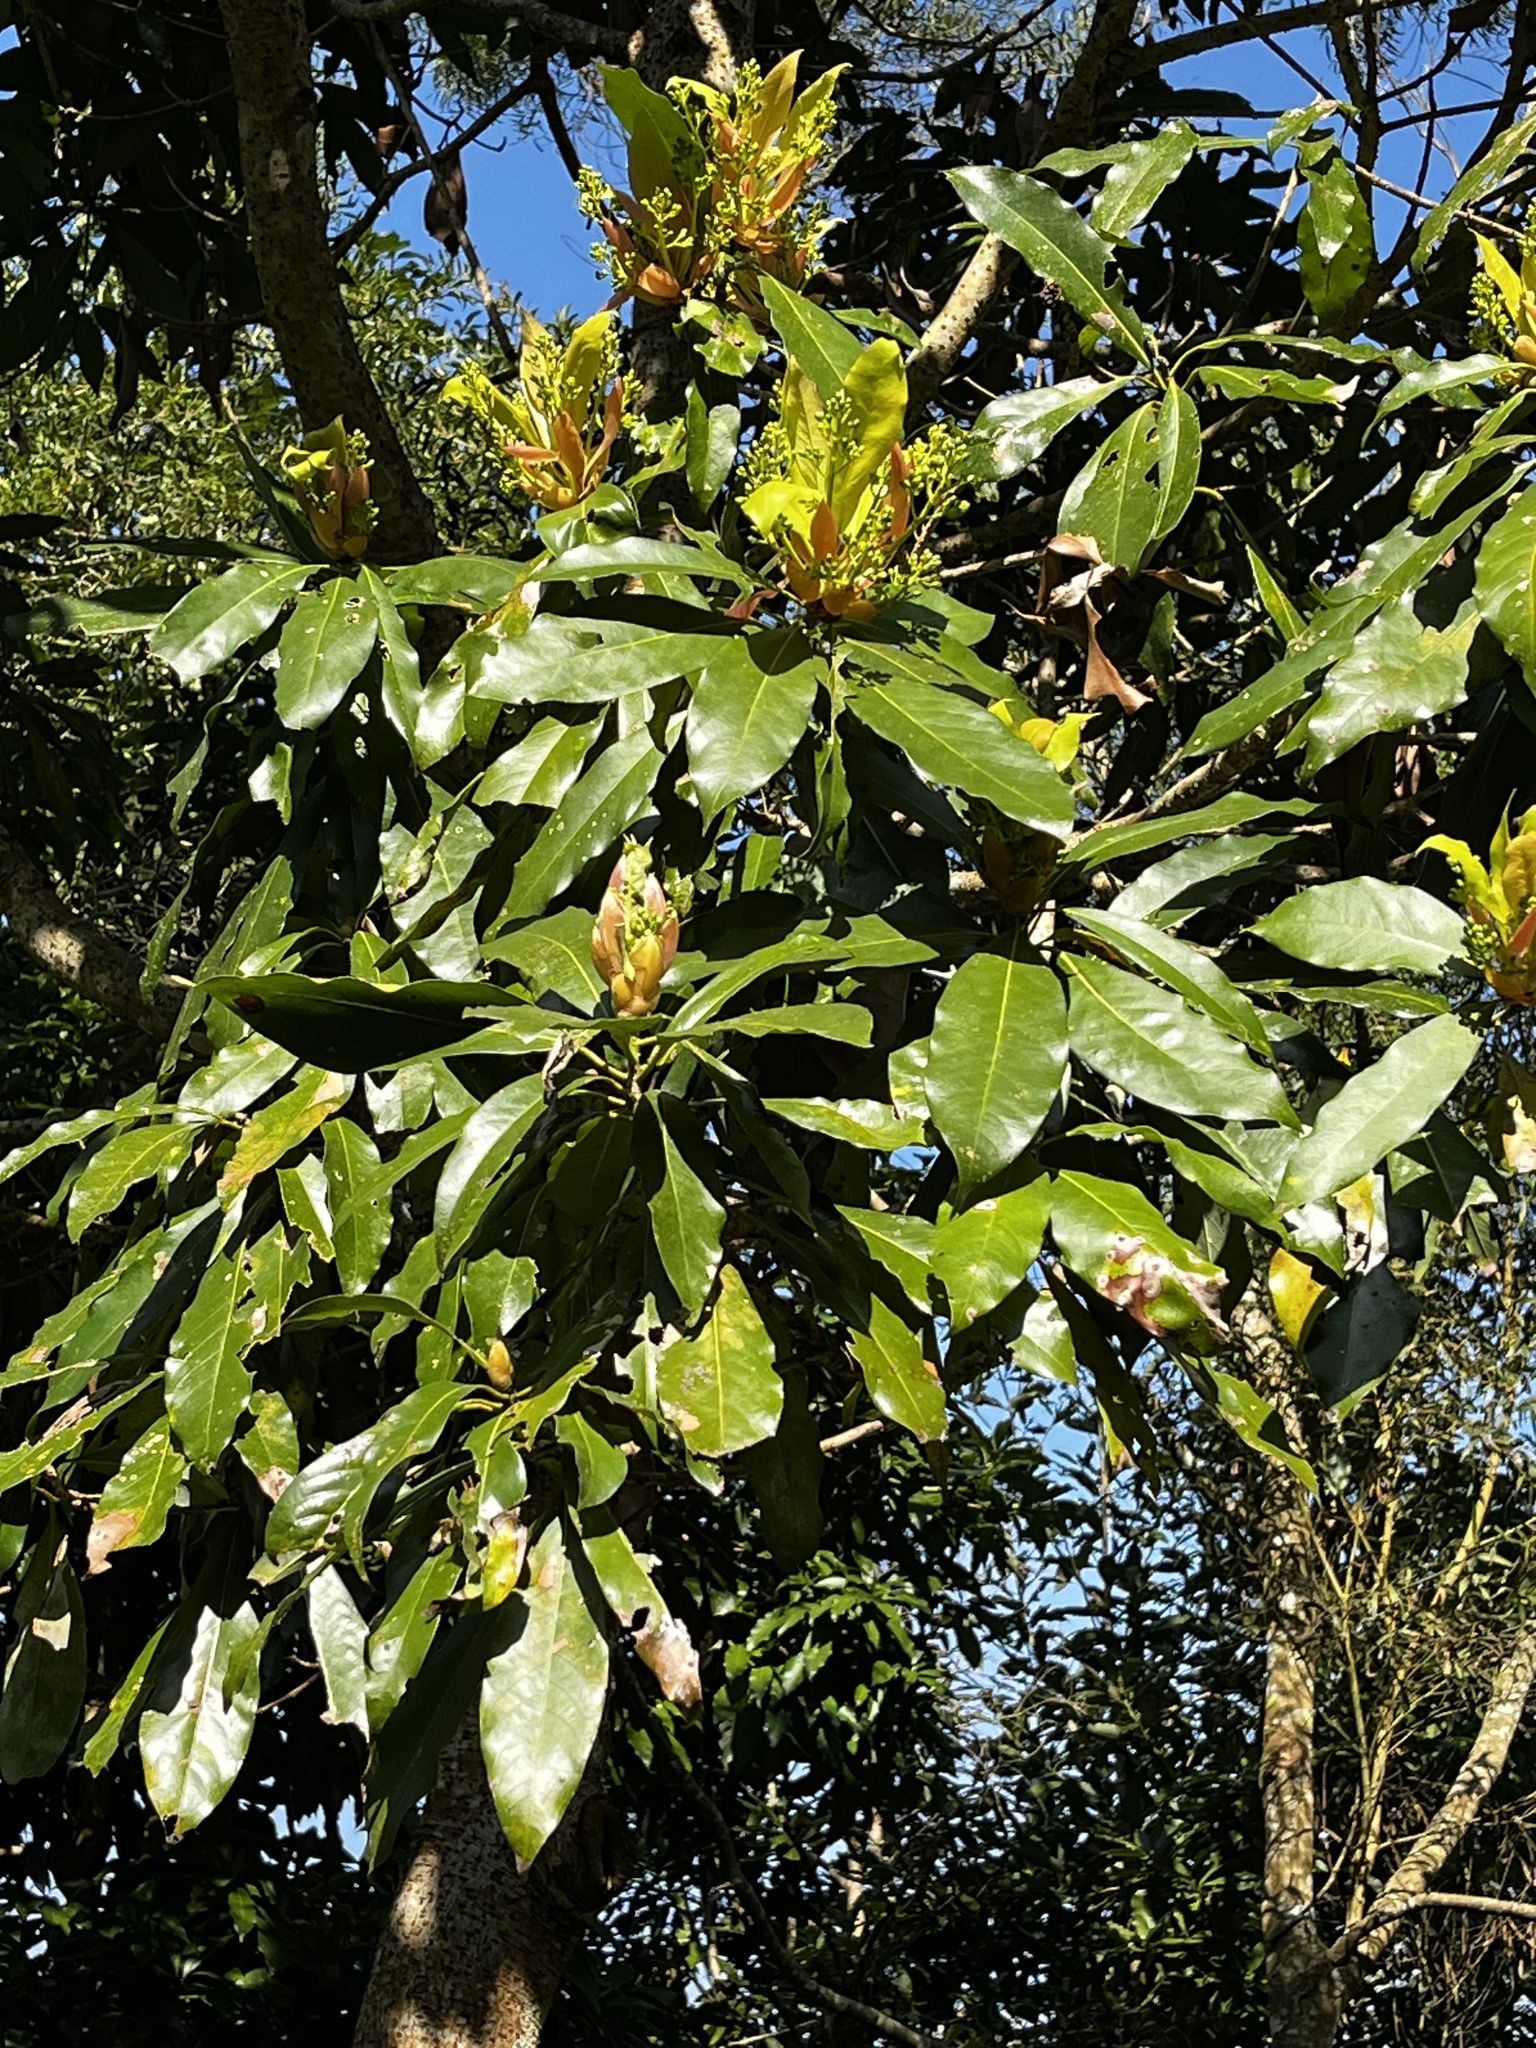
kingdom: Plantae
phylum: Tracheophyta
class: Magnoliopsida
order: Laurales
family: Lauraceae
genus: Machilus
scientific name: Machilus thunbergii
